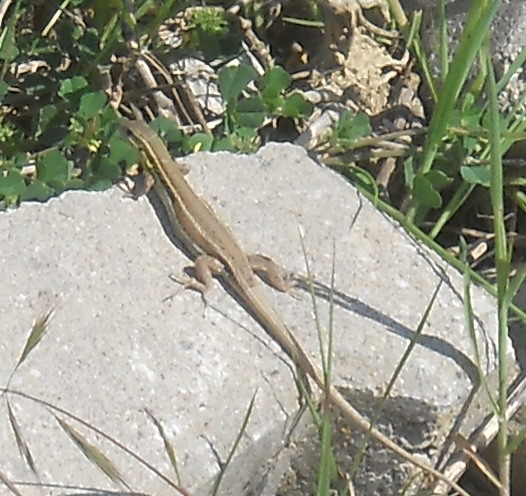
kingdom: Animalia
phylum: Chordata
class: Squamata
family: Lacertidae
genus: Ophisops
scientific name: Ophisops elegans
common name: Snake-eyed lizard
